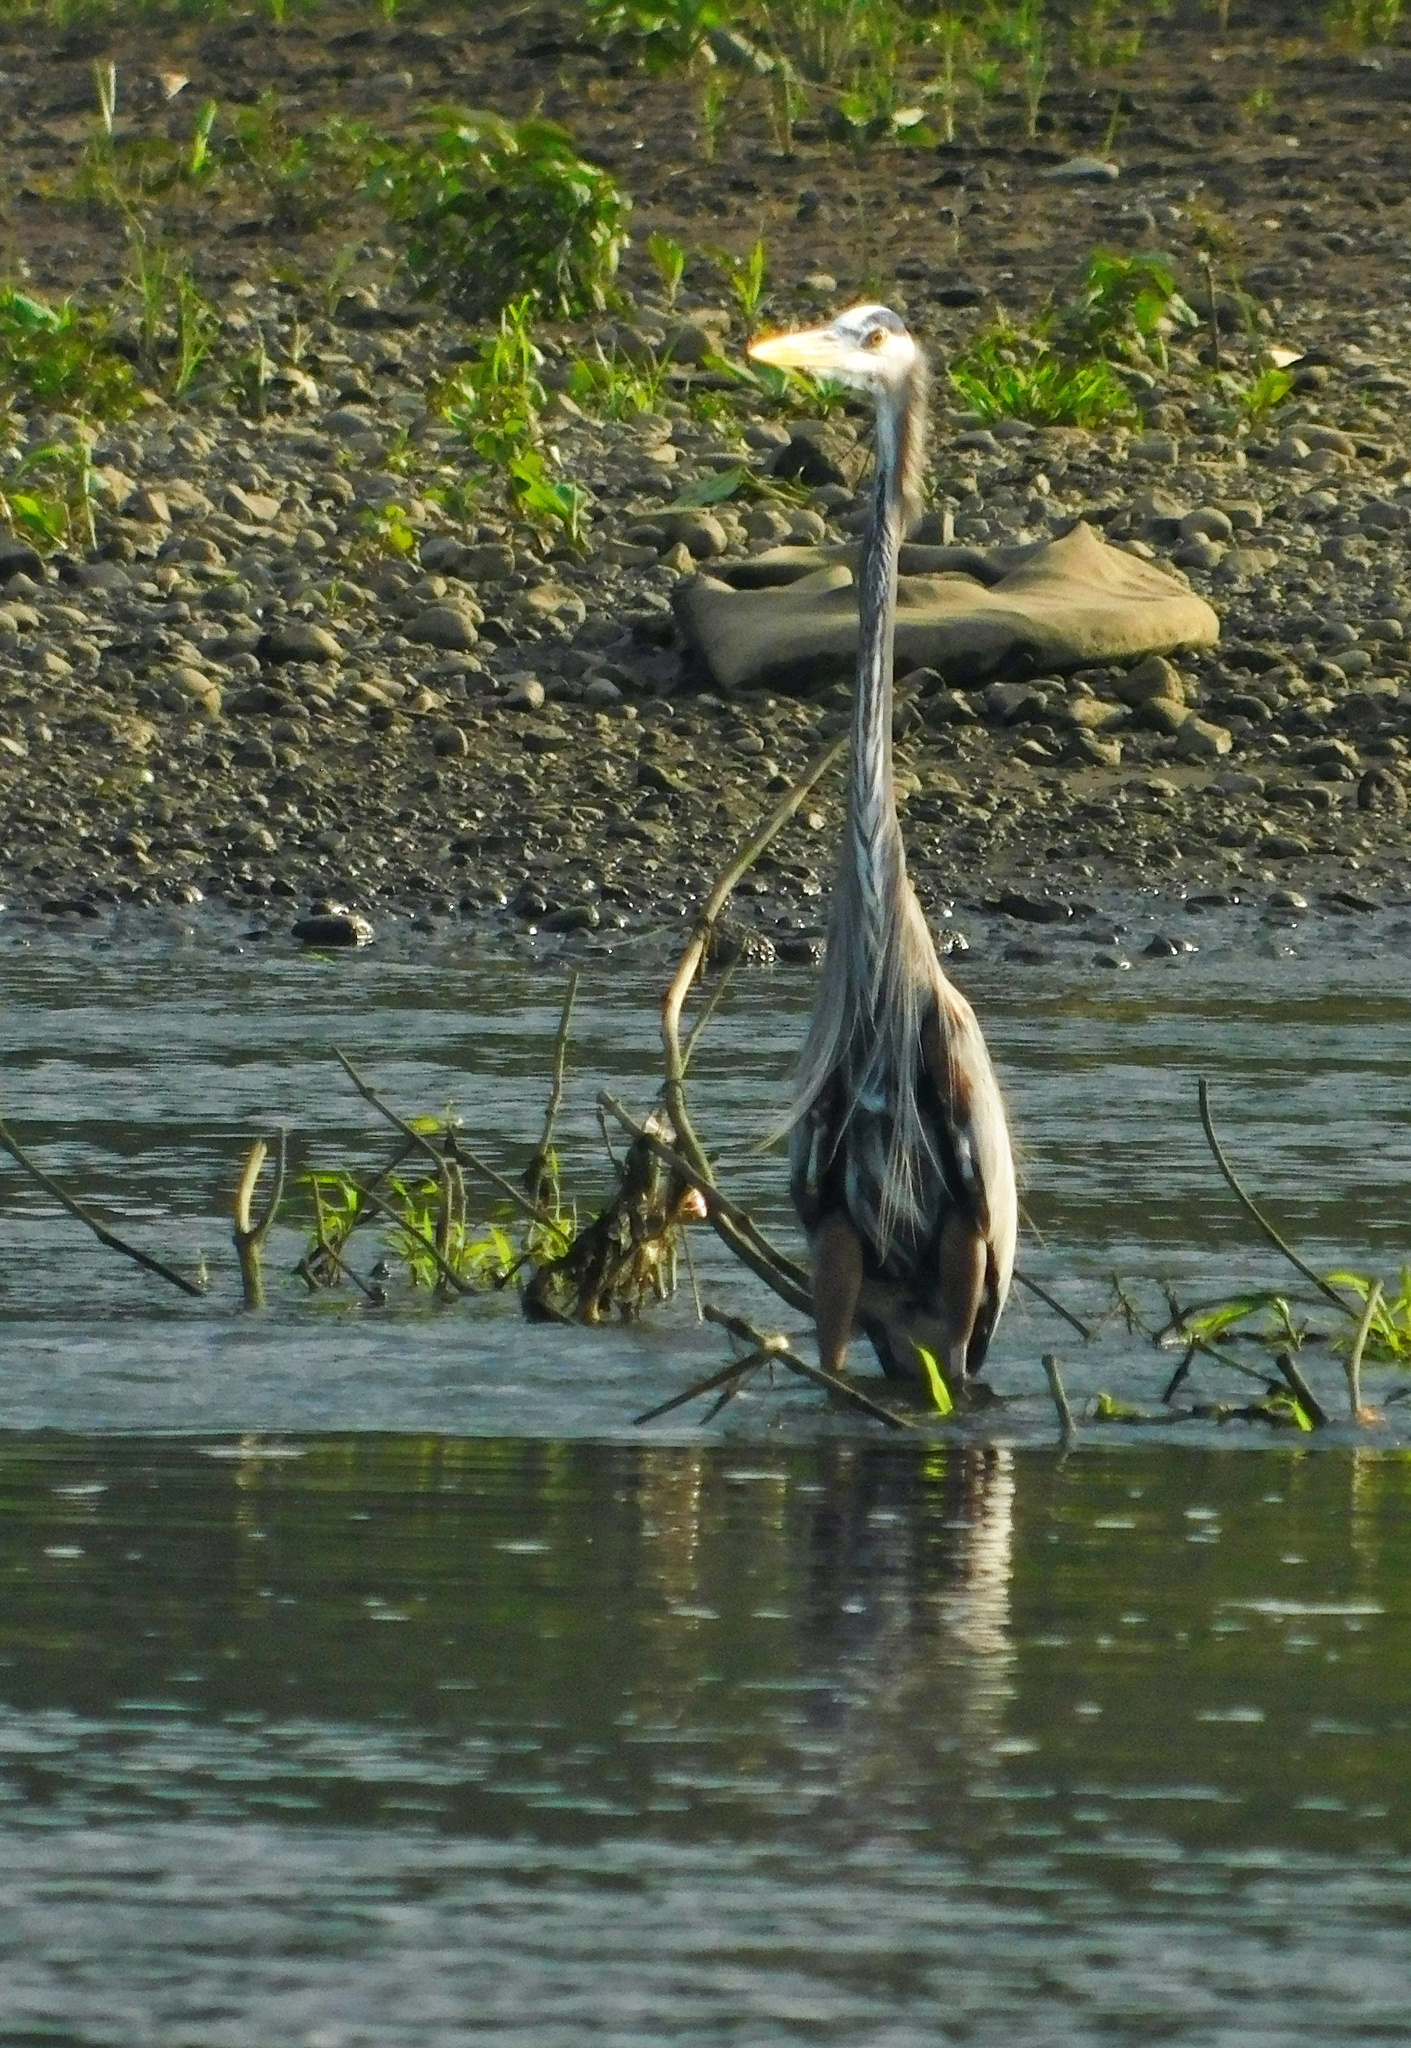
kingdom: Animalia
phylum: Chordata
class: Aves
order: Pelecaniformes
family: Ardeidae
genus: Ardea
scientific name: Ardea herodias
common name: Great blue heron
